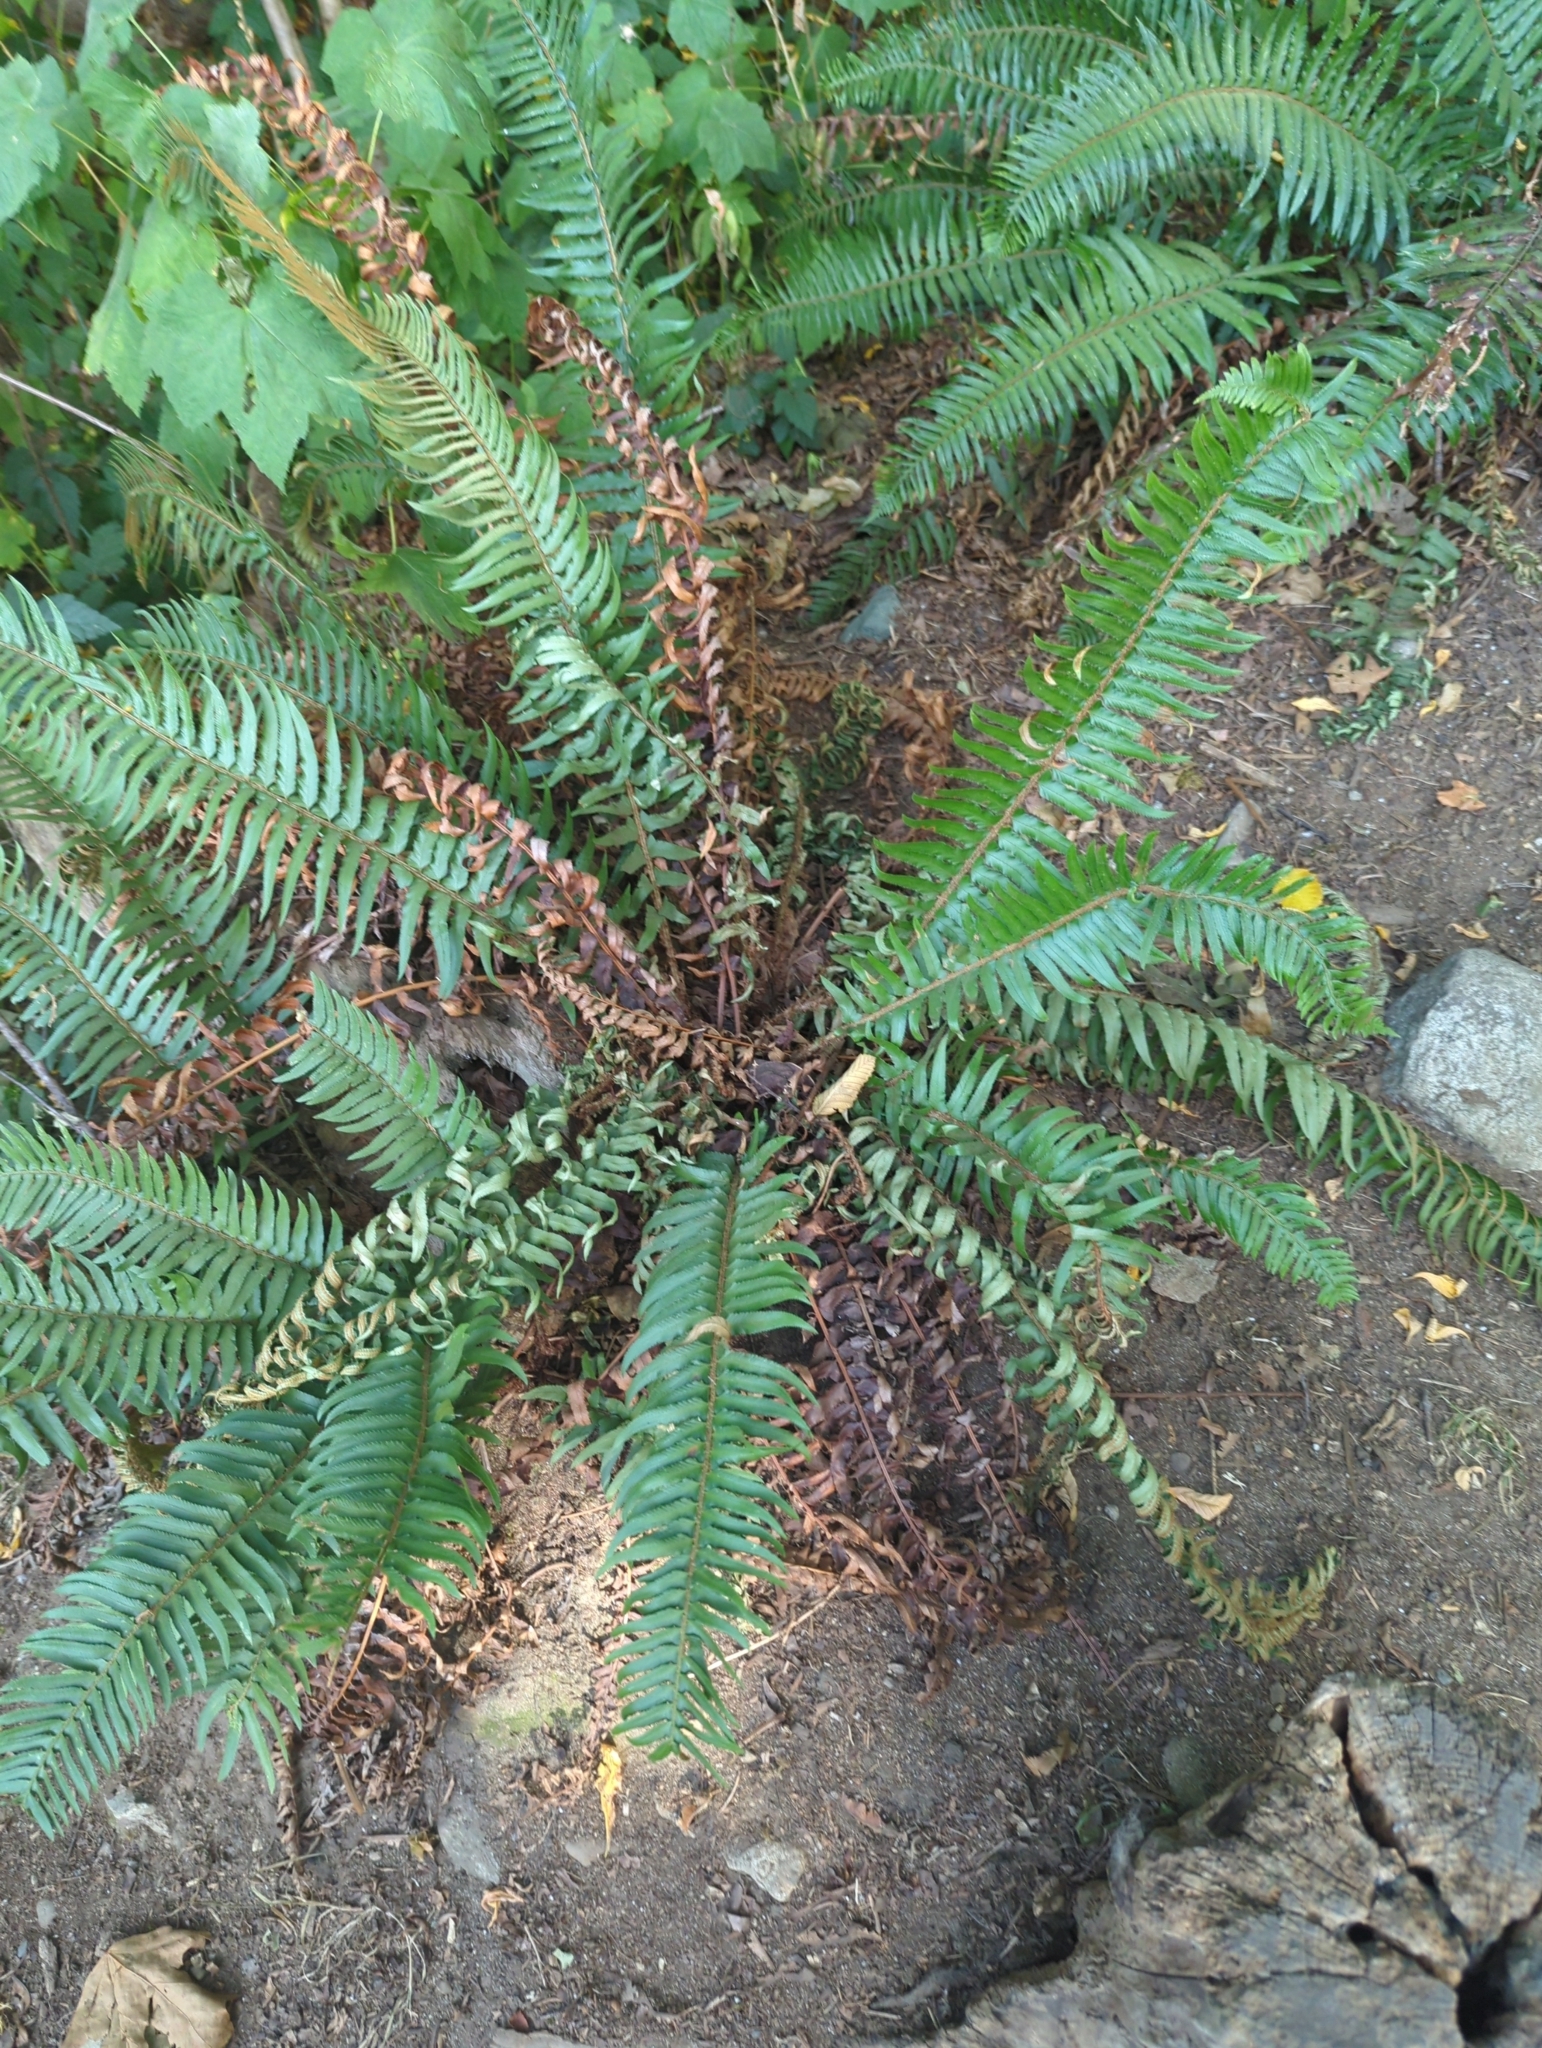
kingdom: Plantae
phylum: Tracheophyta
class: Polypodiopsida
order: Polypodiales
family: Dryopteridaceae
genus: Polystichum
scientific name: Polystichum munitum
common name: Western sword-fern
